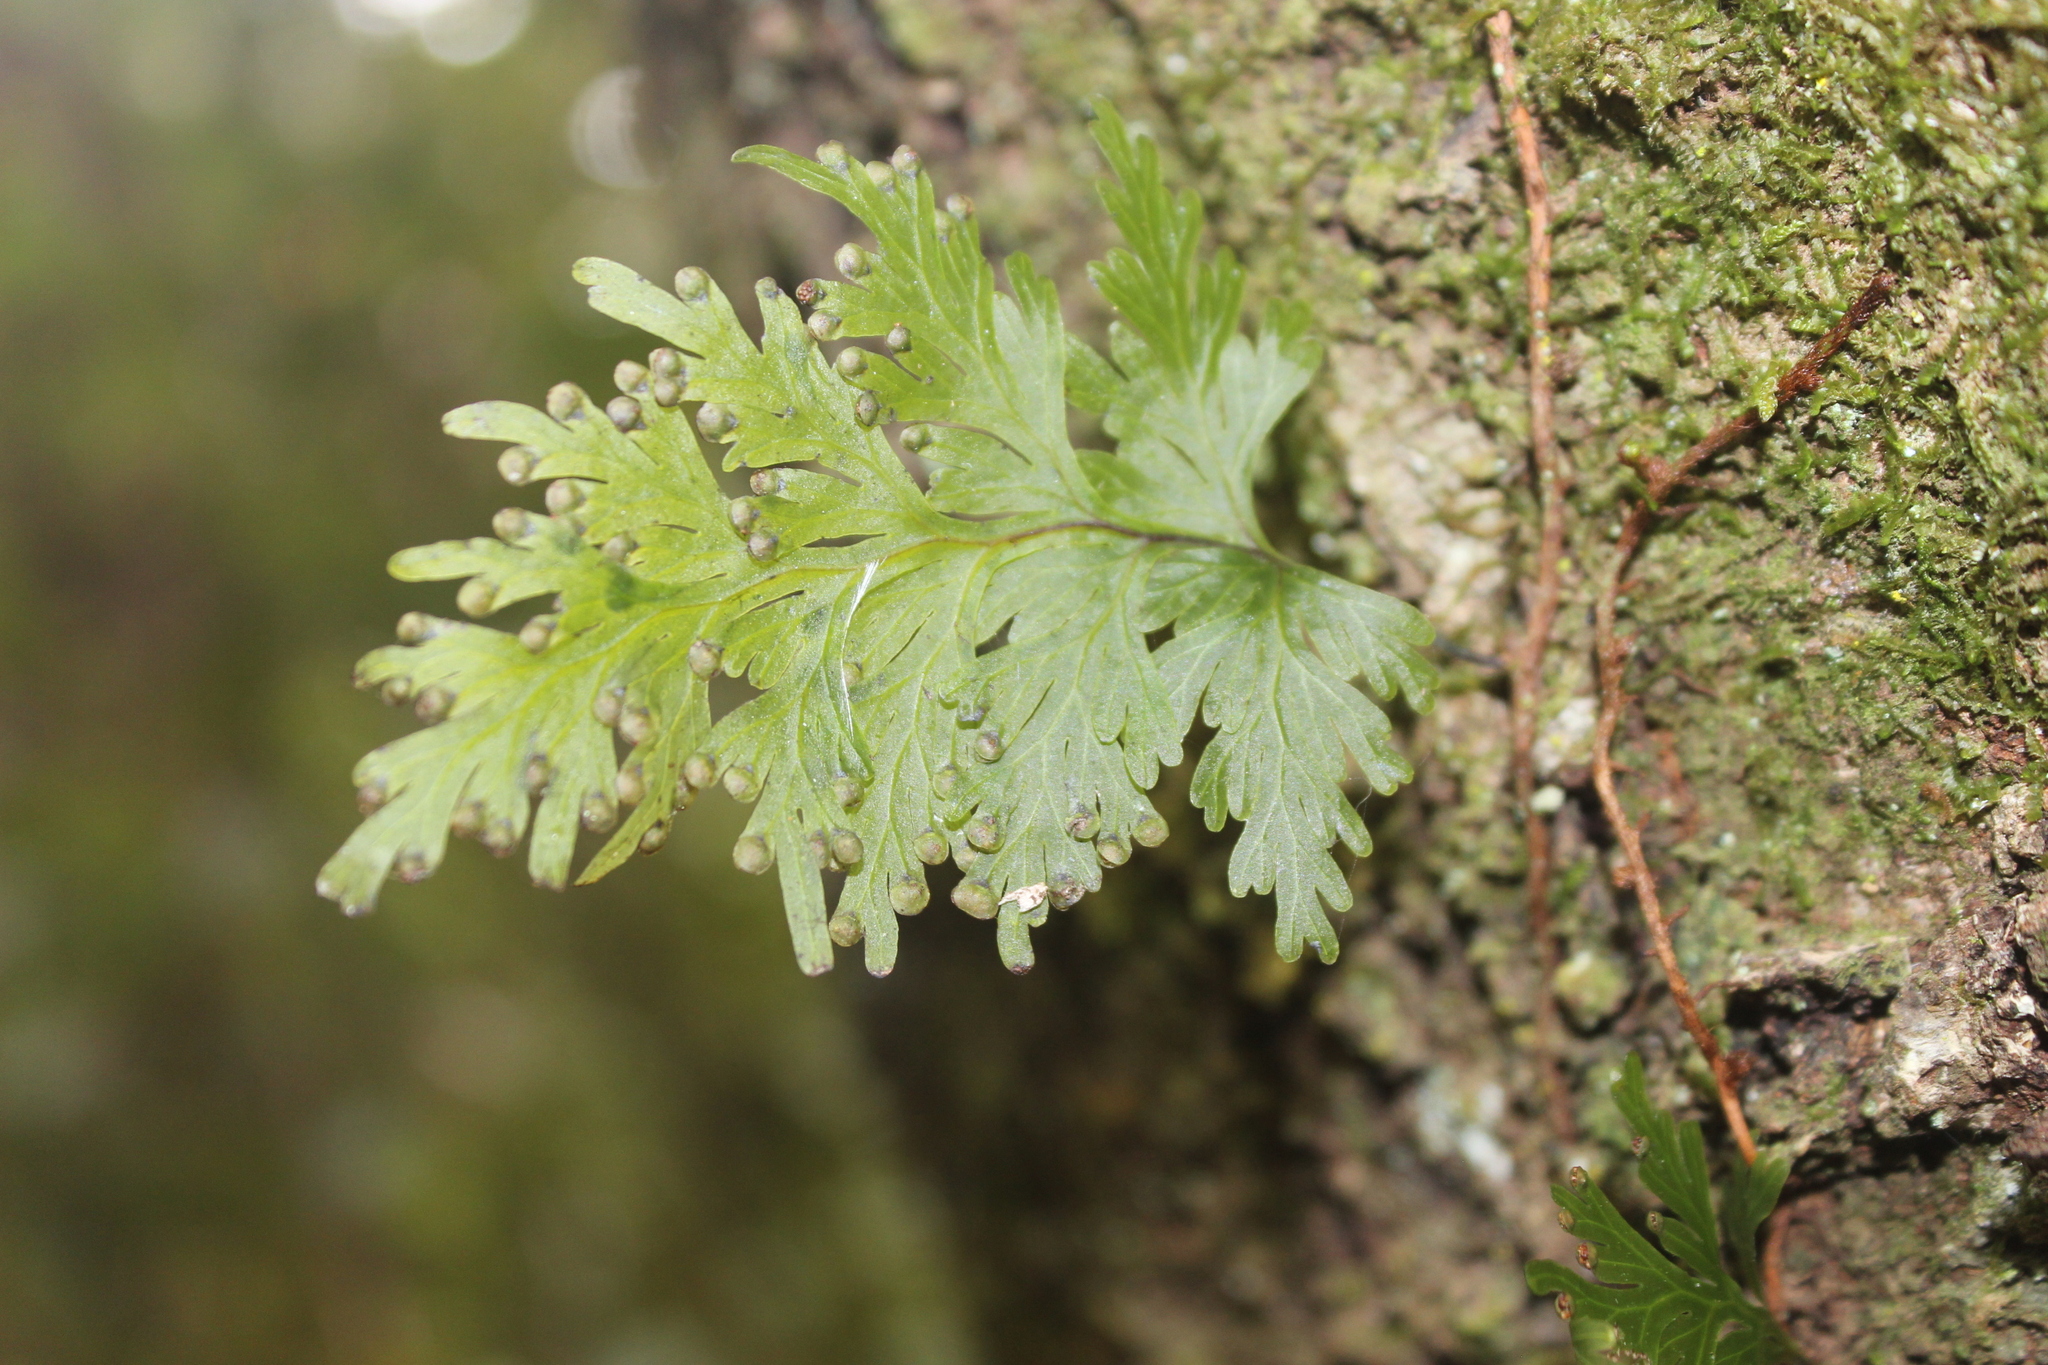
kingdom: Plantae
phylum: Tracheophyta
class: Polypodiopsida
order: Hymenophyllales
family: Hymenophyllaceae
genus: Hymenophyllum
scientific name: Hymenophyllum dilatatum
